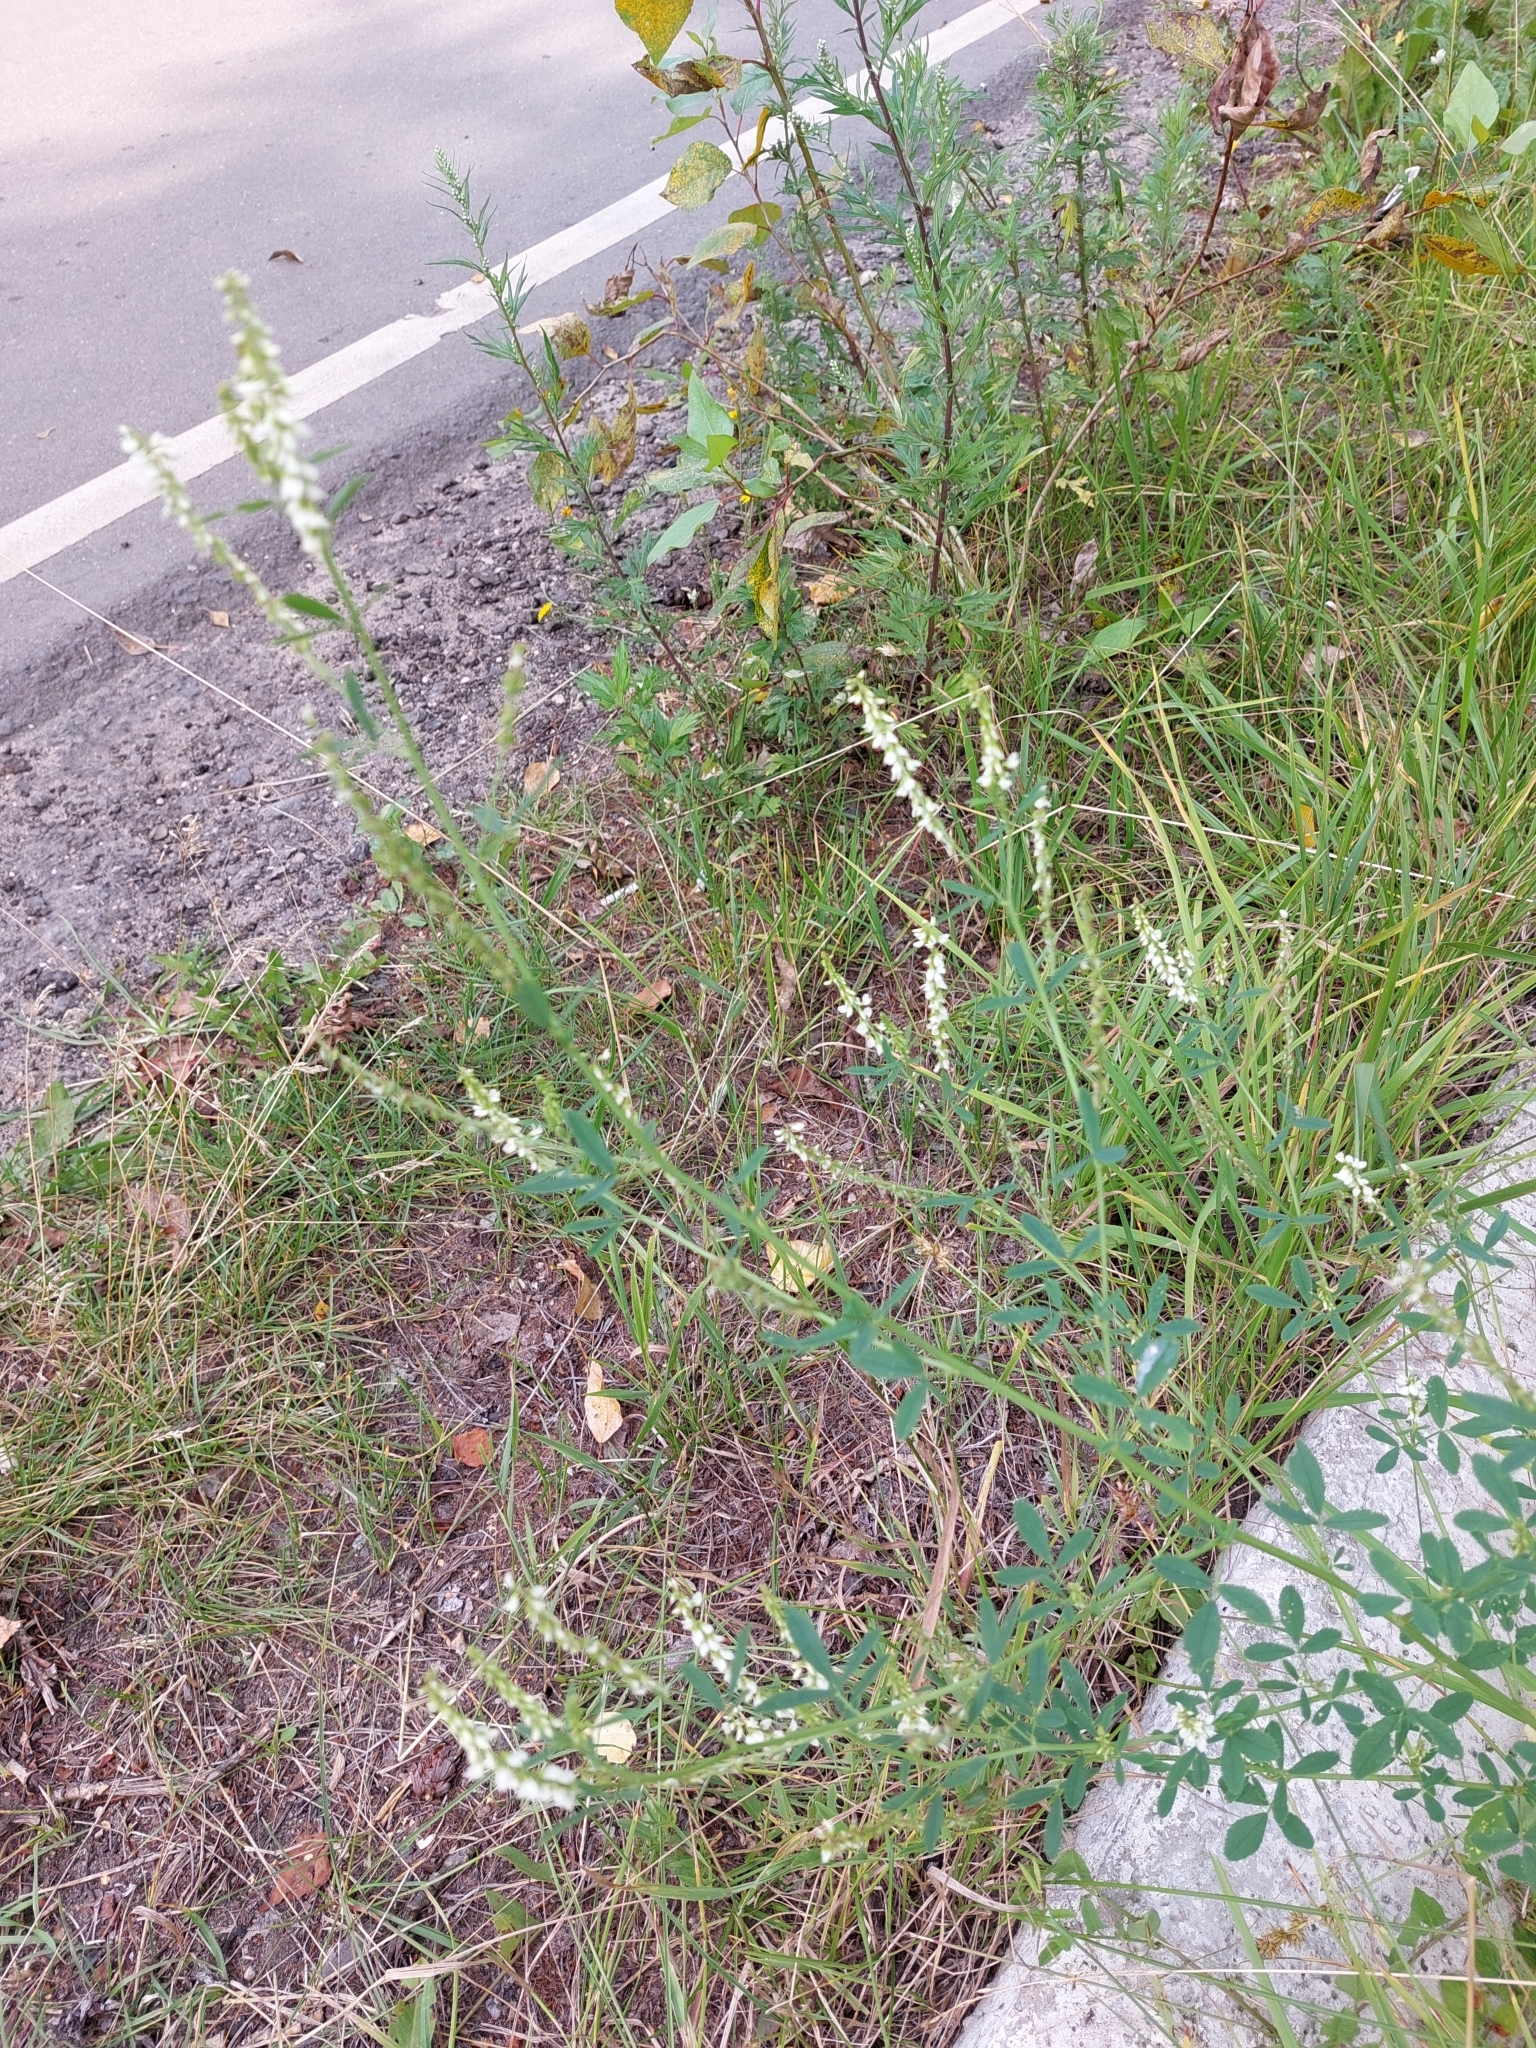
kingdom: Plantae
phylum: Tracheophyta
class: Magnoliopsida
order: Fabales
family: Fabaceae
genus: Melilotus
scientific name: Melilotus albus
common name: White melilot
